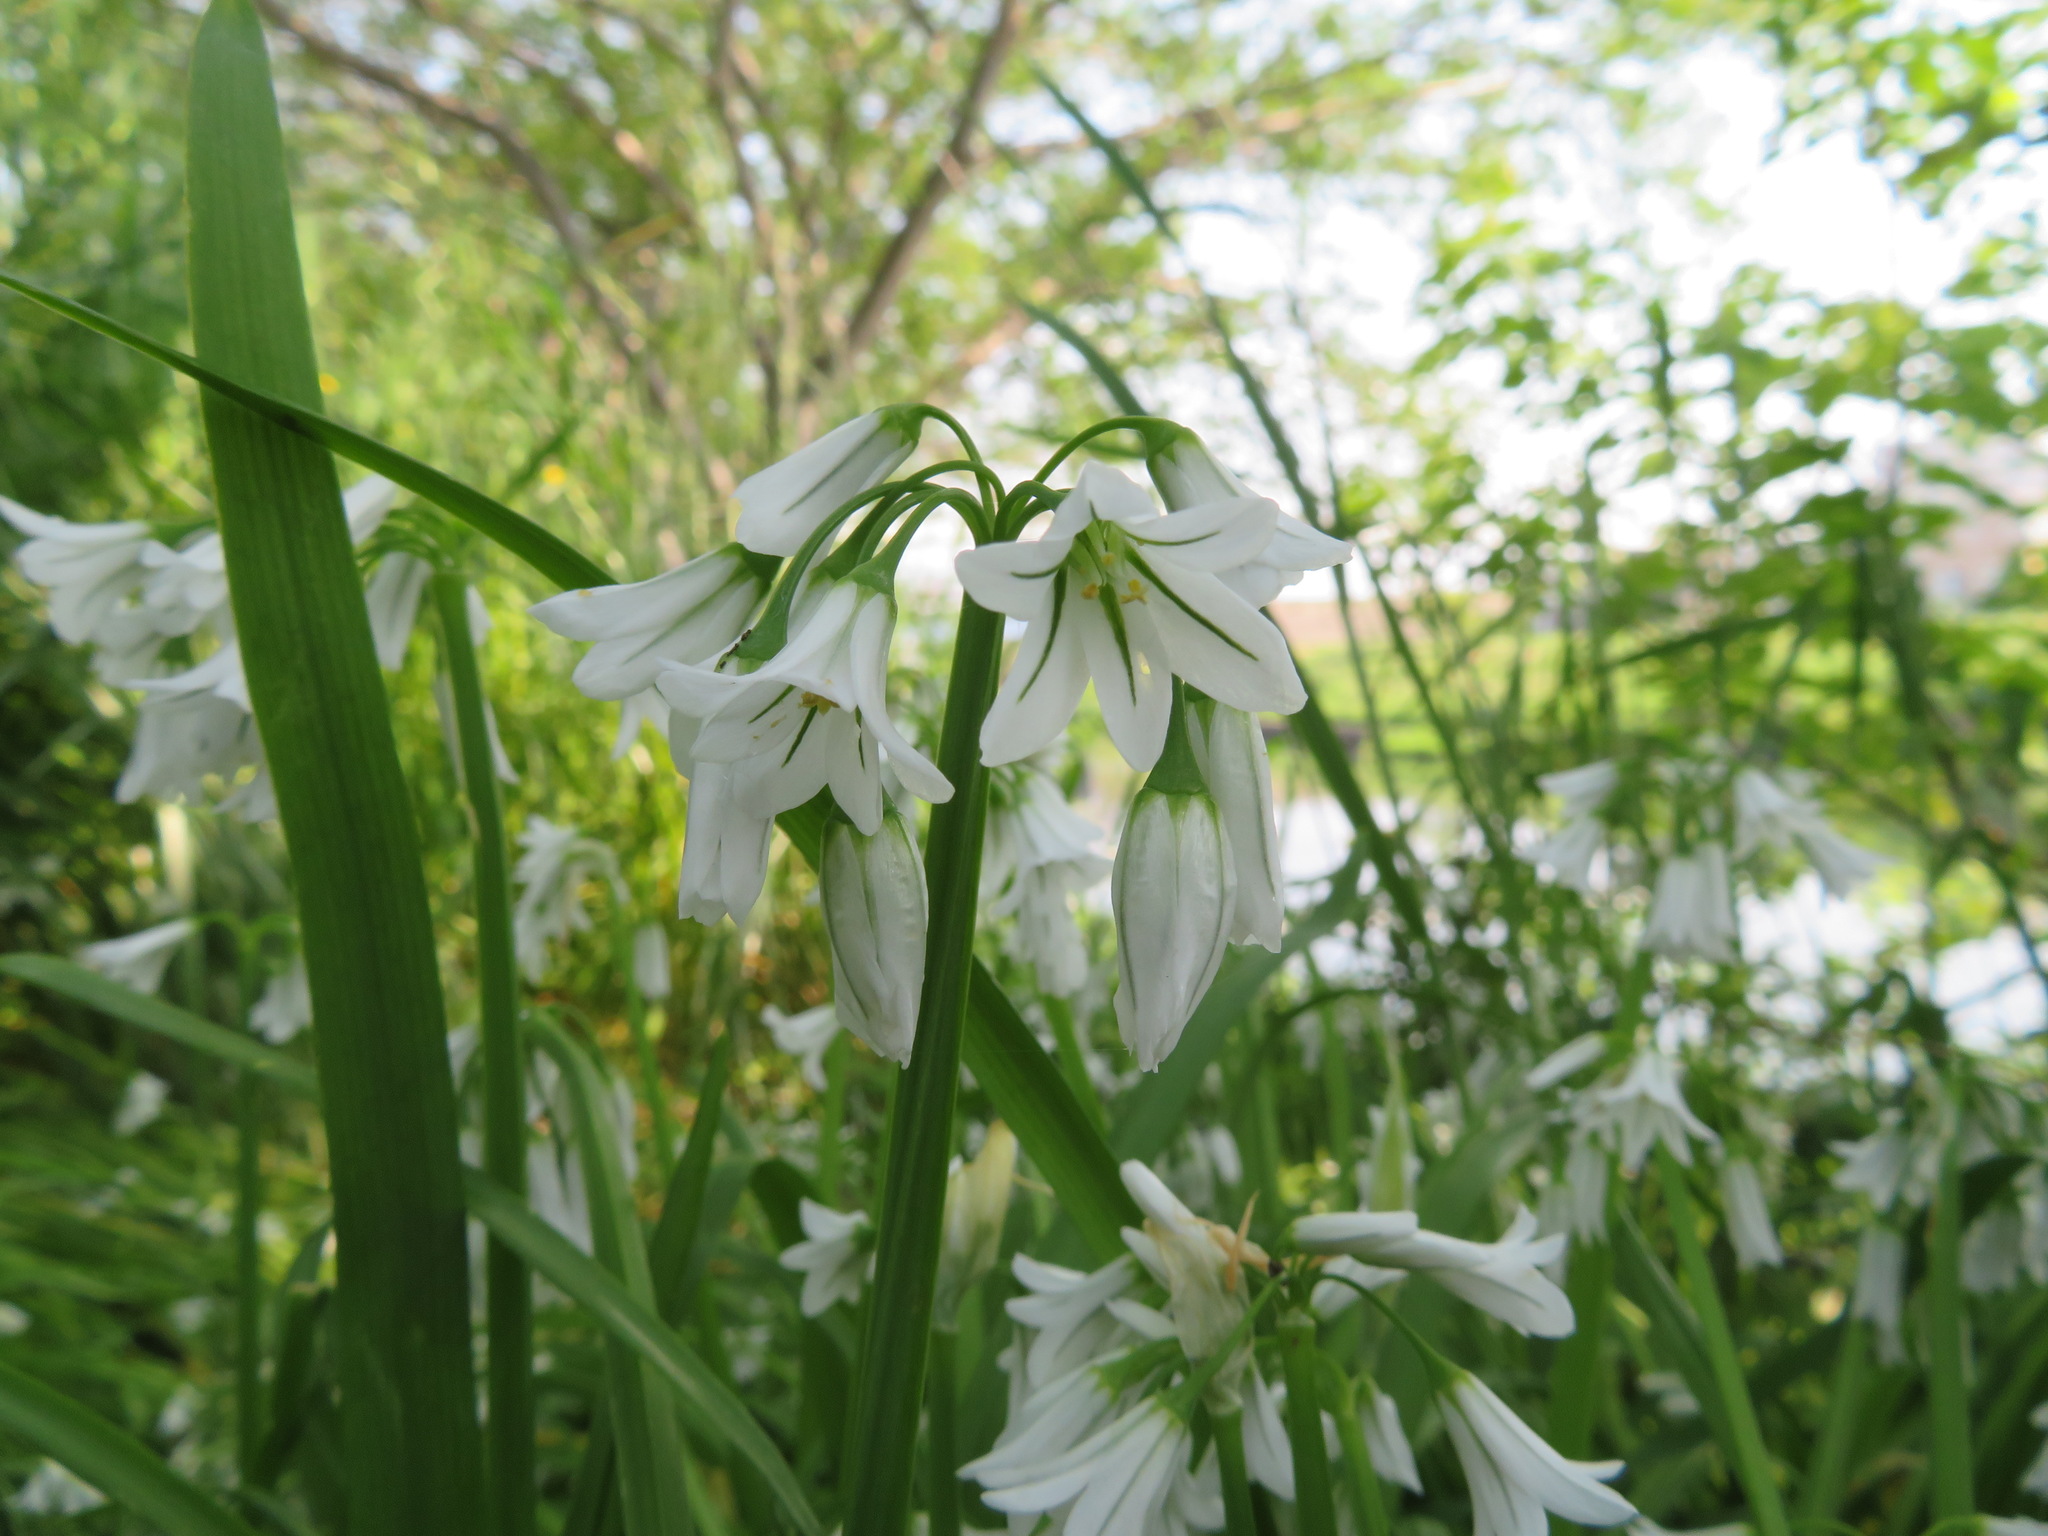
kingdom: Plantae
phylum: Tracheophyta
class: Liliopsida
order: Asparagales
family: Amaryllidaceae
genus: Allium
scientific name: Allium triquetrum
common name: Three-cornered garlic
